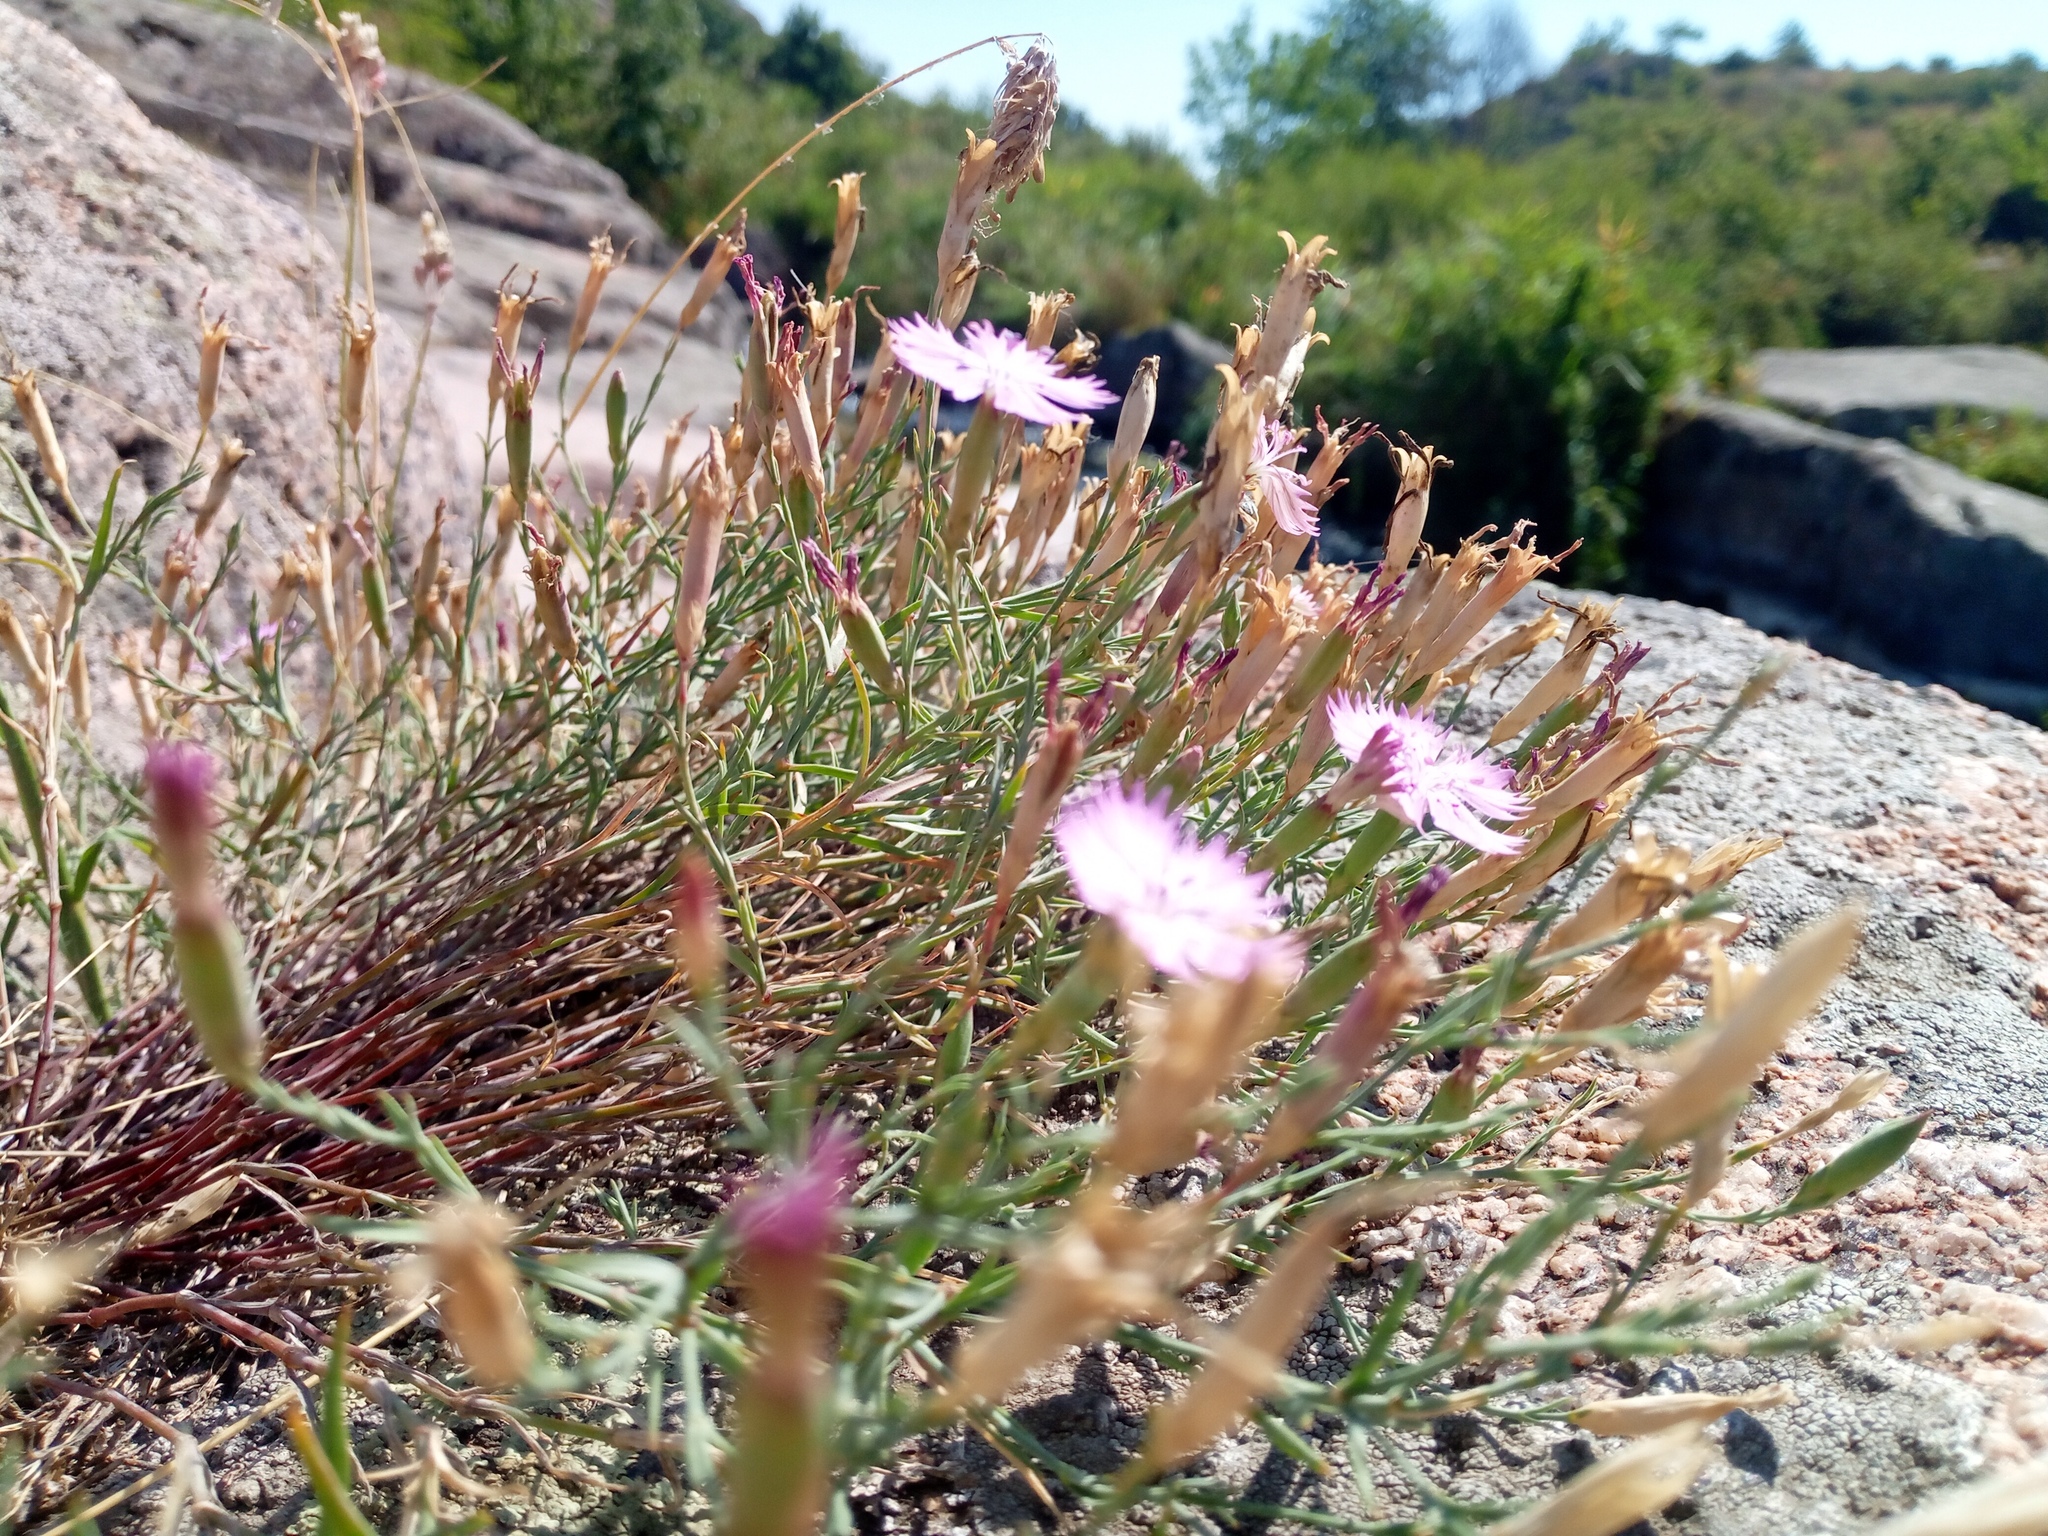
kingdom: Plantae
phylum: Tracheophyta
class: Magnoliopsida
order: Caryophyllales
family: Caryophyllaceae
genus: Dianthus
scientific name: Dianthus hypanicus
